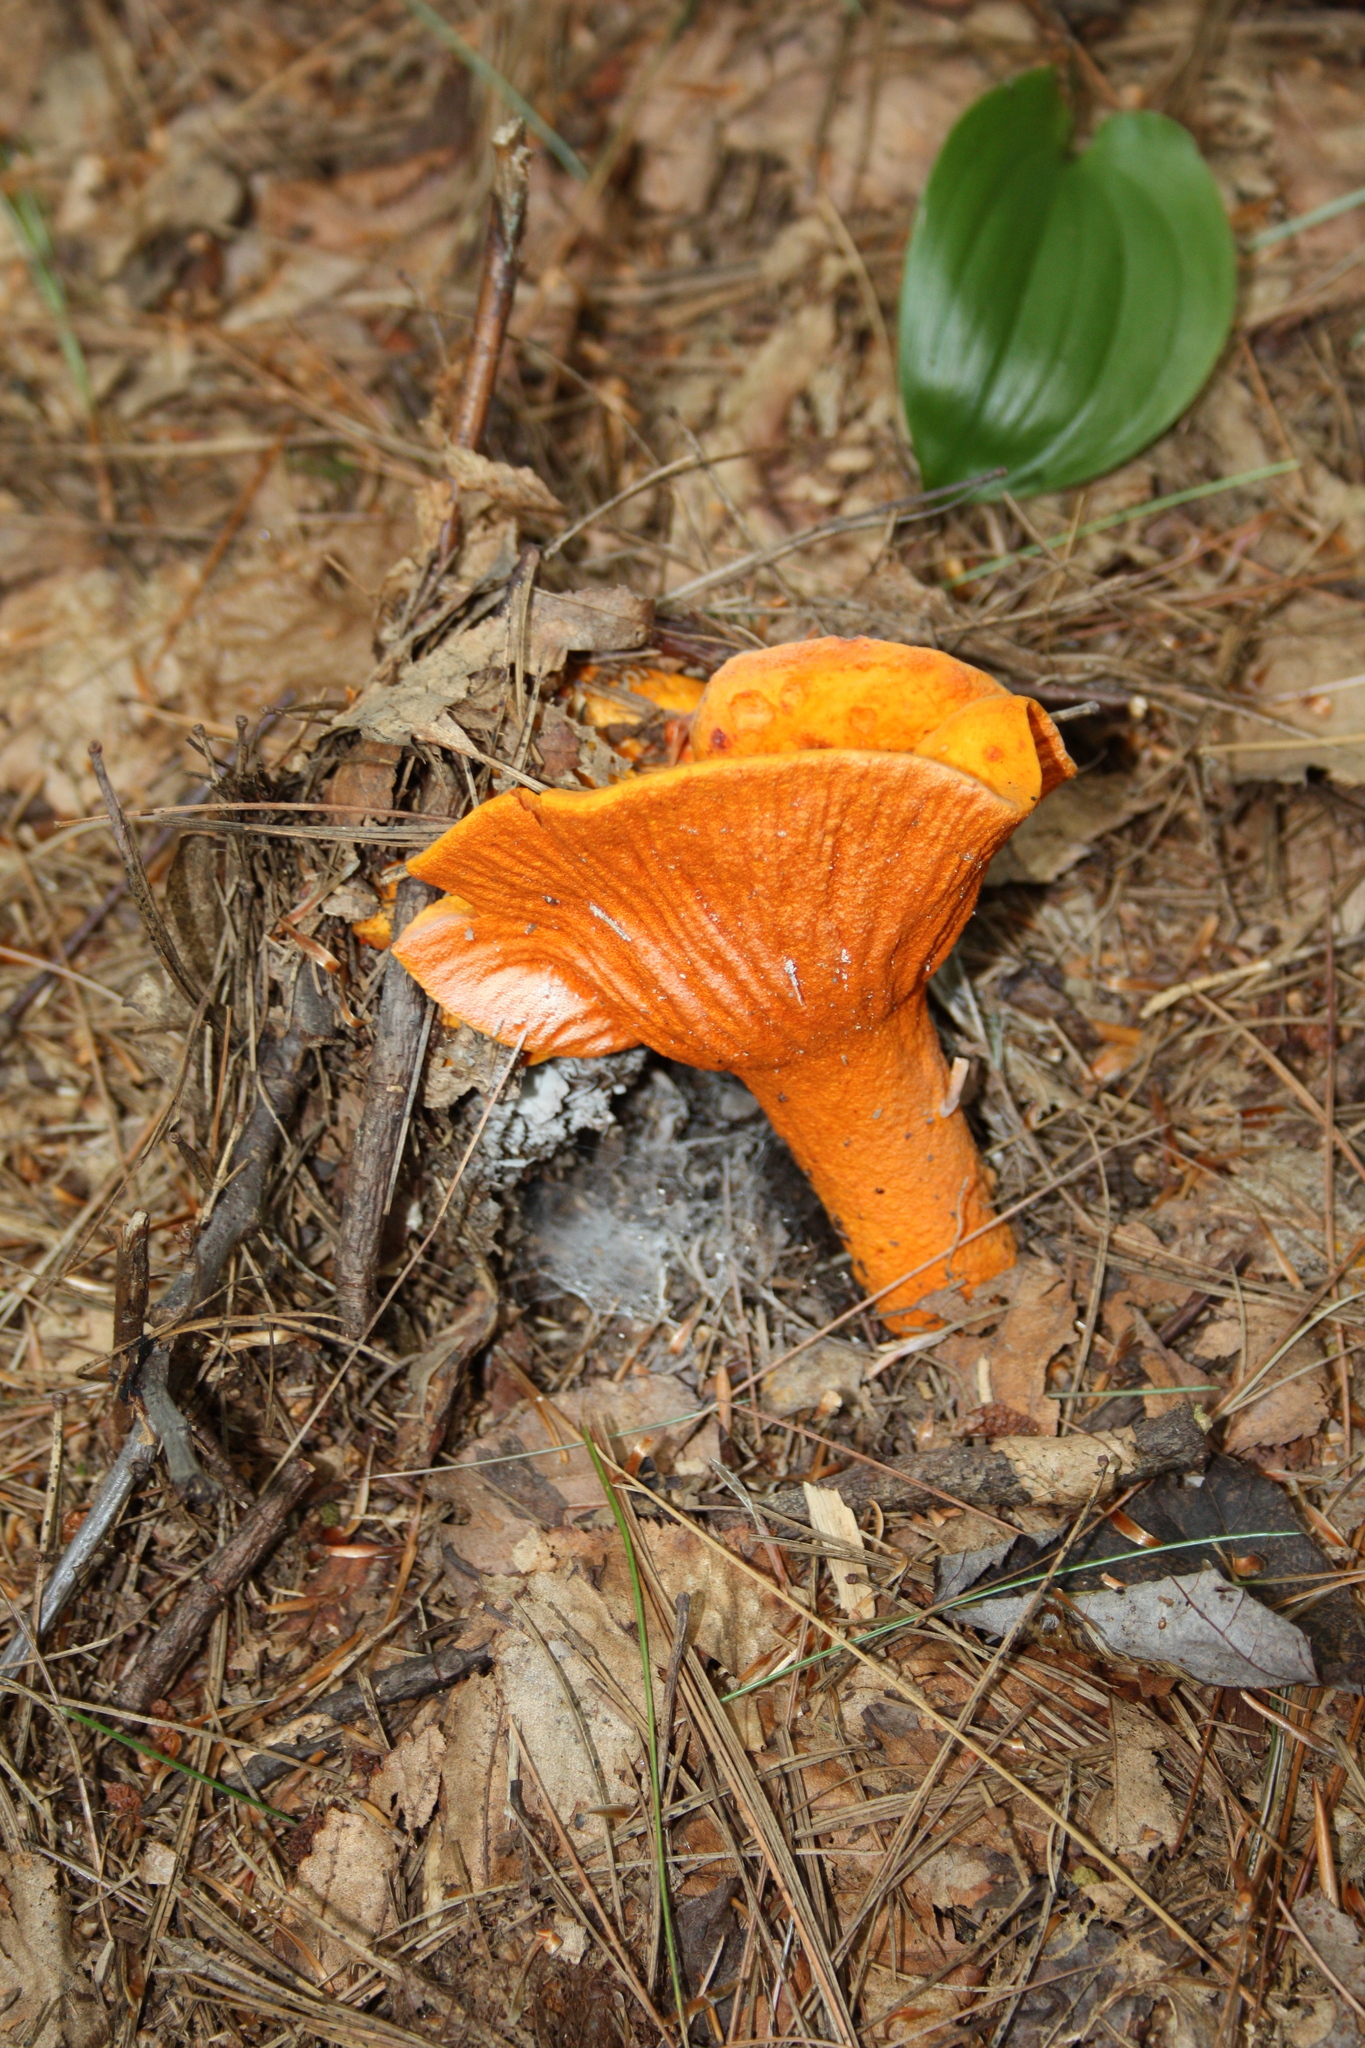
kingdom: Fungi
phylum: Ascomycota
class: Sordariomycetes
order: Hypocreales
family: Hypocreaceae
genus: Hypomyces
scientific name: Hypomyces lactifluorum
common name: Lobster mushroom
